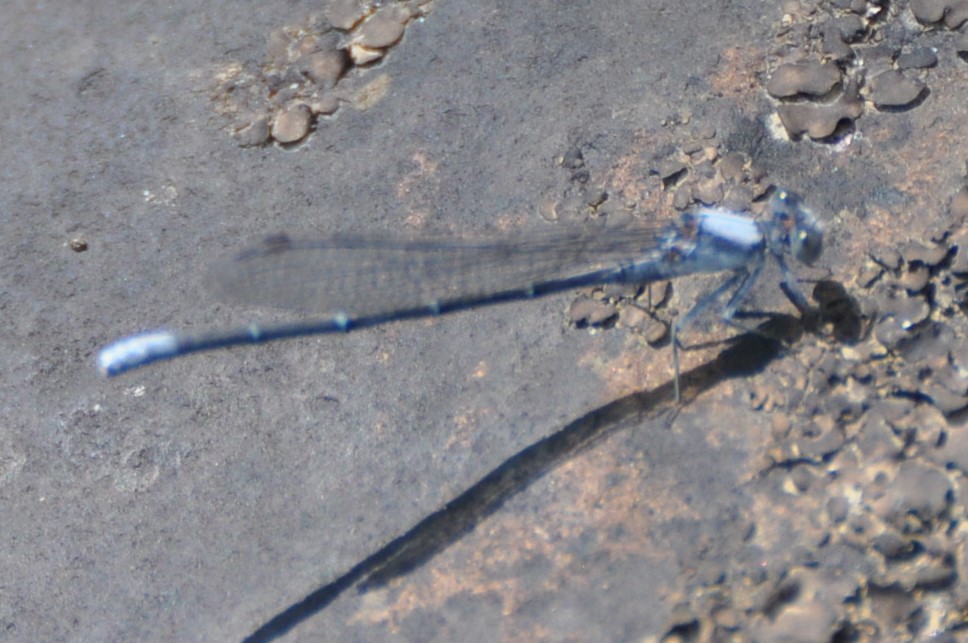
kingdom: Animalia
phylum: Arthropoda
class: Insecta
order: Odonata
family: Coenagrionidae
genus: Argia
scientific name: Argia moesta
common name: Powdered dancer
